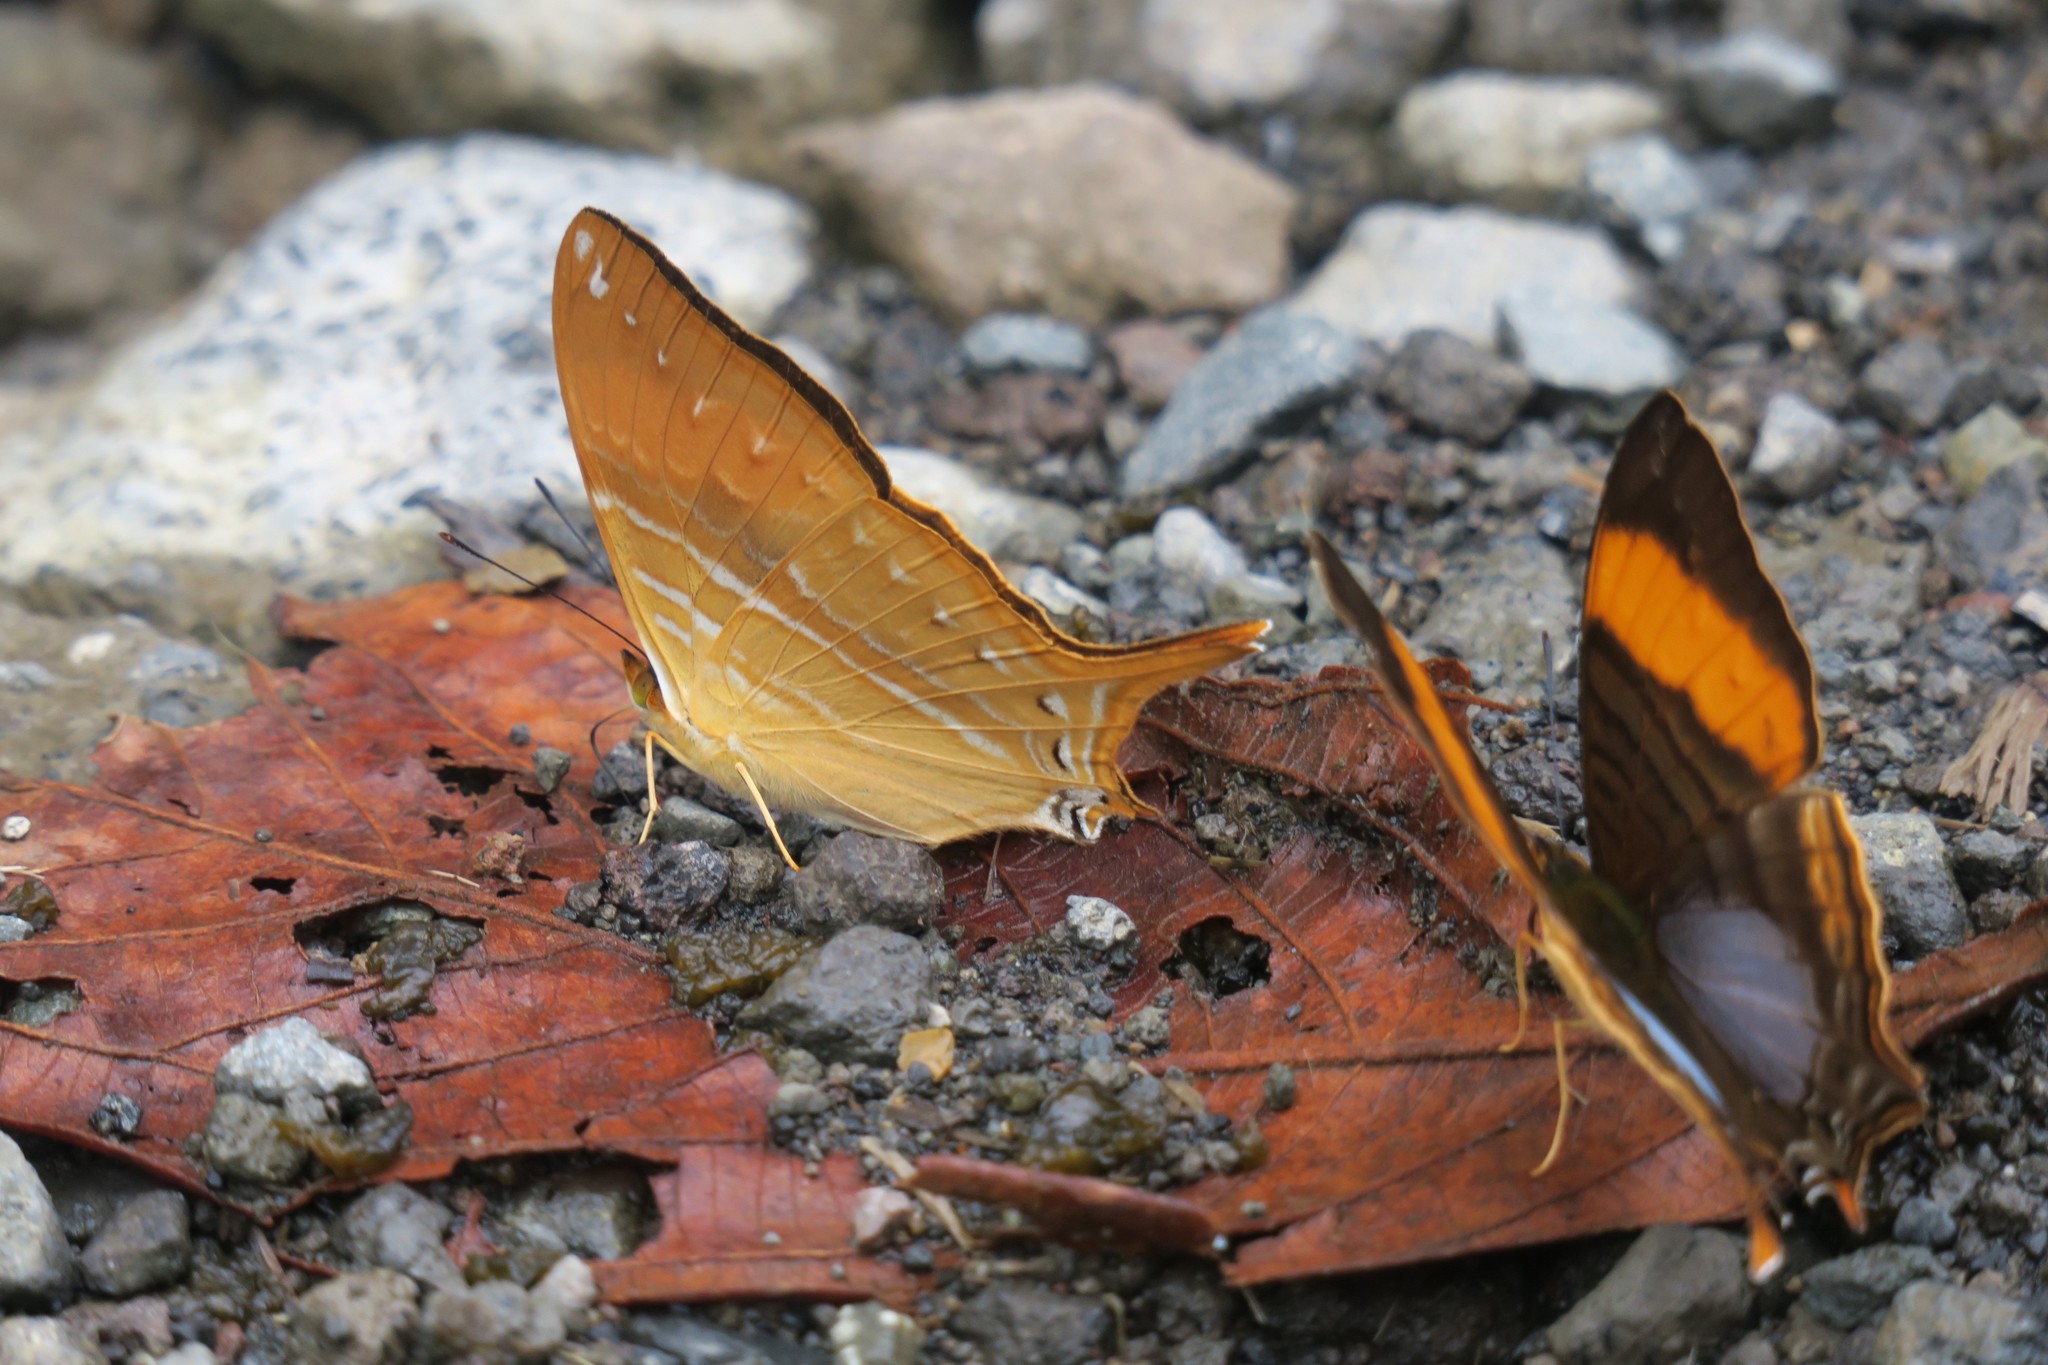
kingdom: Animalia
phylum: Arthropoda
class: Insecta
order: Lepidoptera
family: Nymphalidae
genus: Marpesia
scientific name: Marpesia corinna
